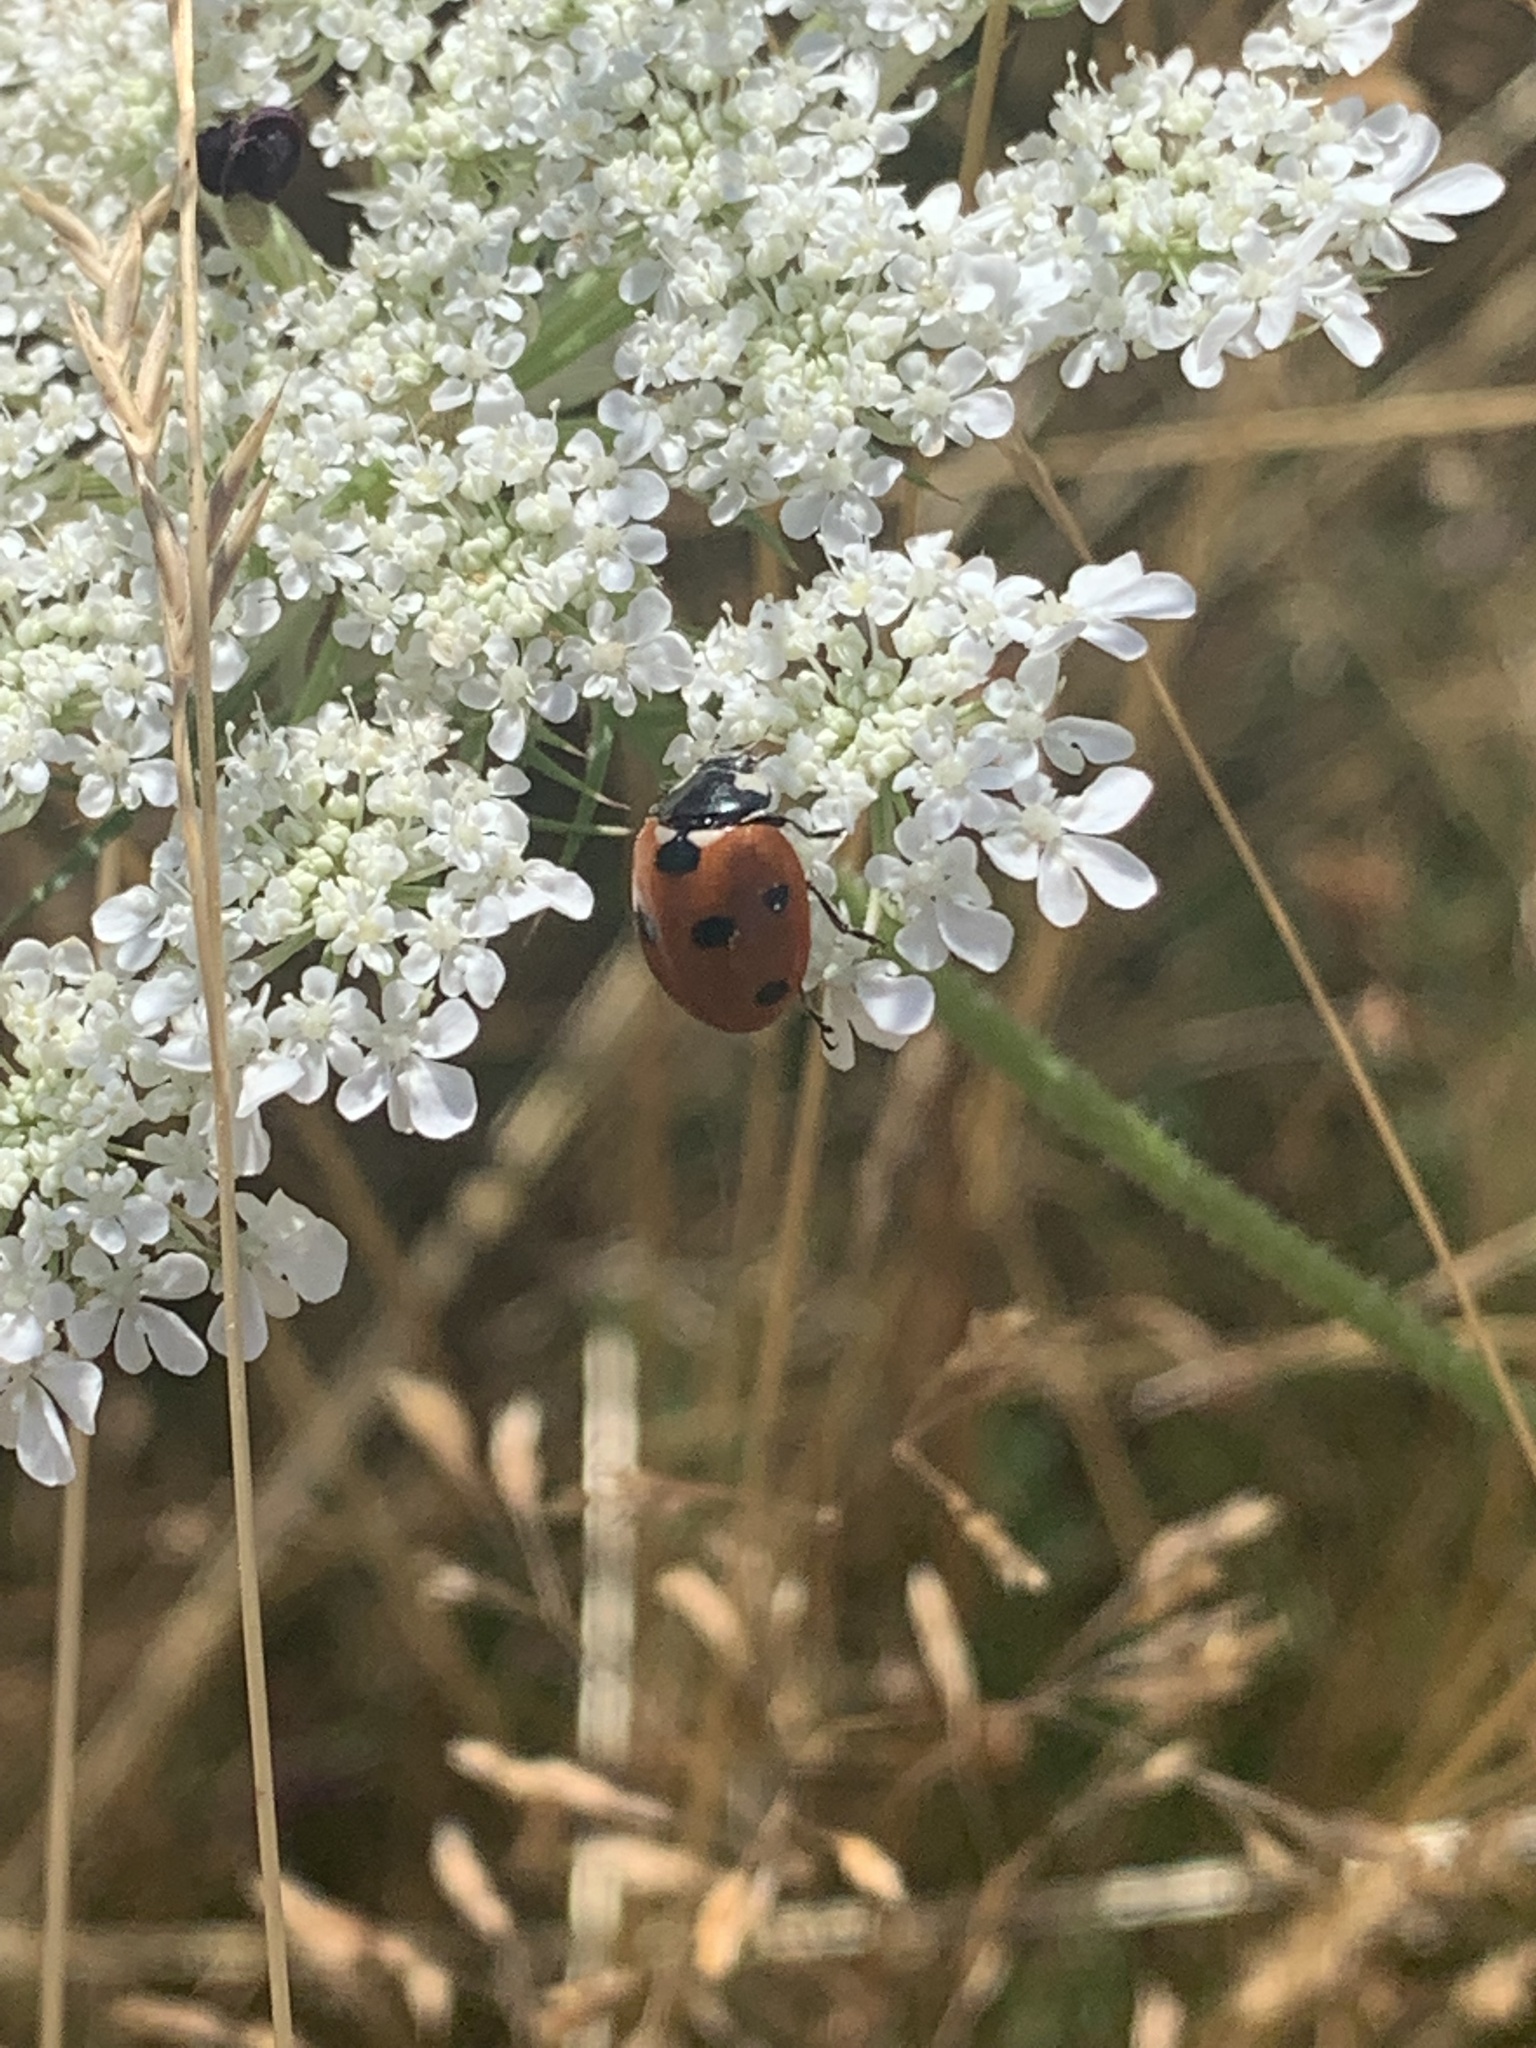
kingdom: Animalia
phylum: Arthropoda
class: Insecta
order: Coleoptera
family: Coccinellidae
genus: Coccinella
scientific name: Coccinella septempunctata
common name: Sevenspotted lady beetle
